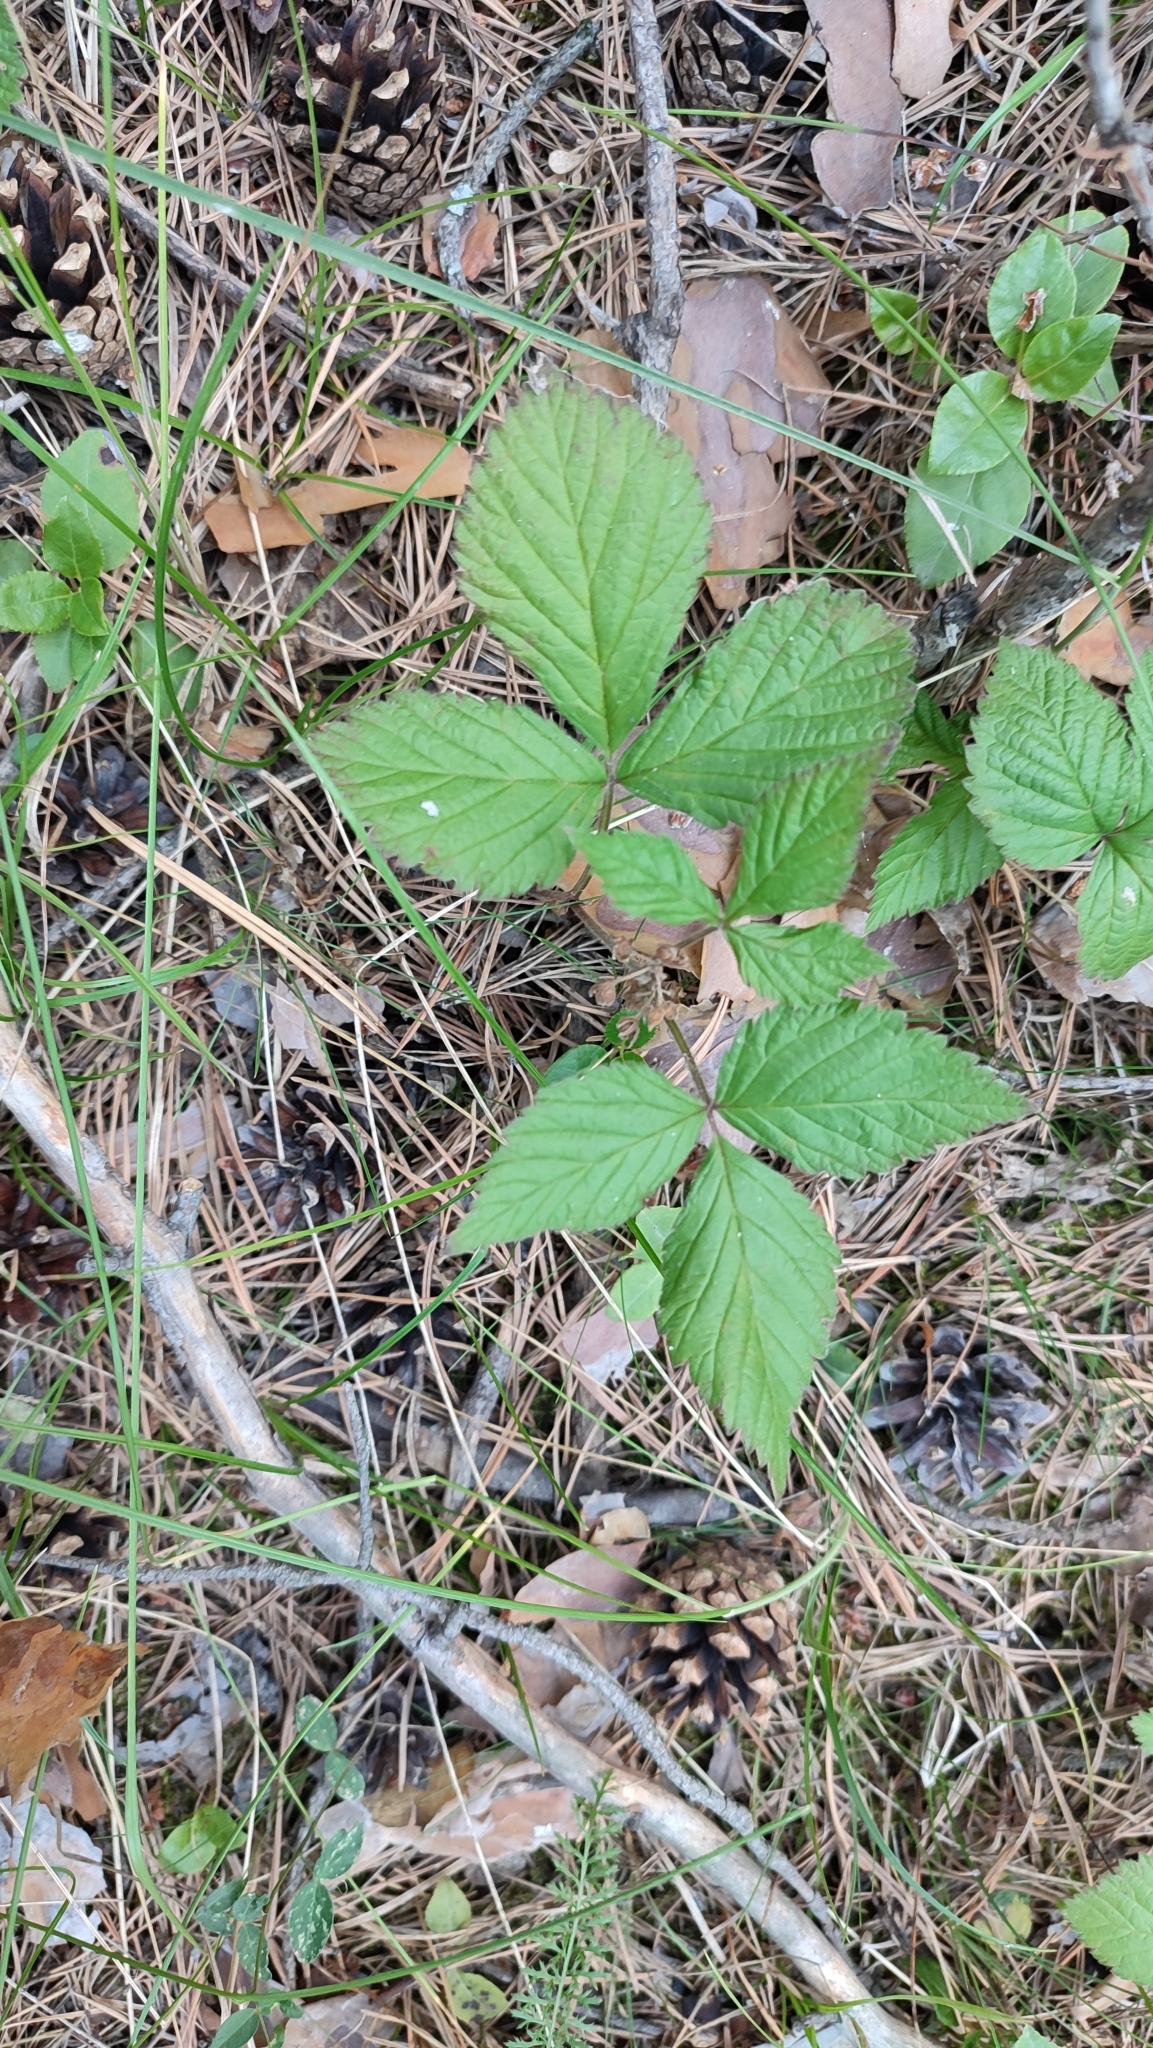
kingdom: Plantae
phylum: Tracheophyta
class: Magnoliopsida
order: Rosales
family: Rosaceae
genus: Rubus
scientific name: Rubus saxatilis
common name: Stone bramble
